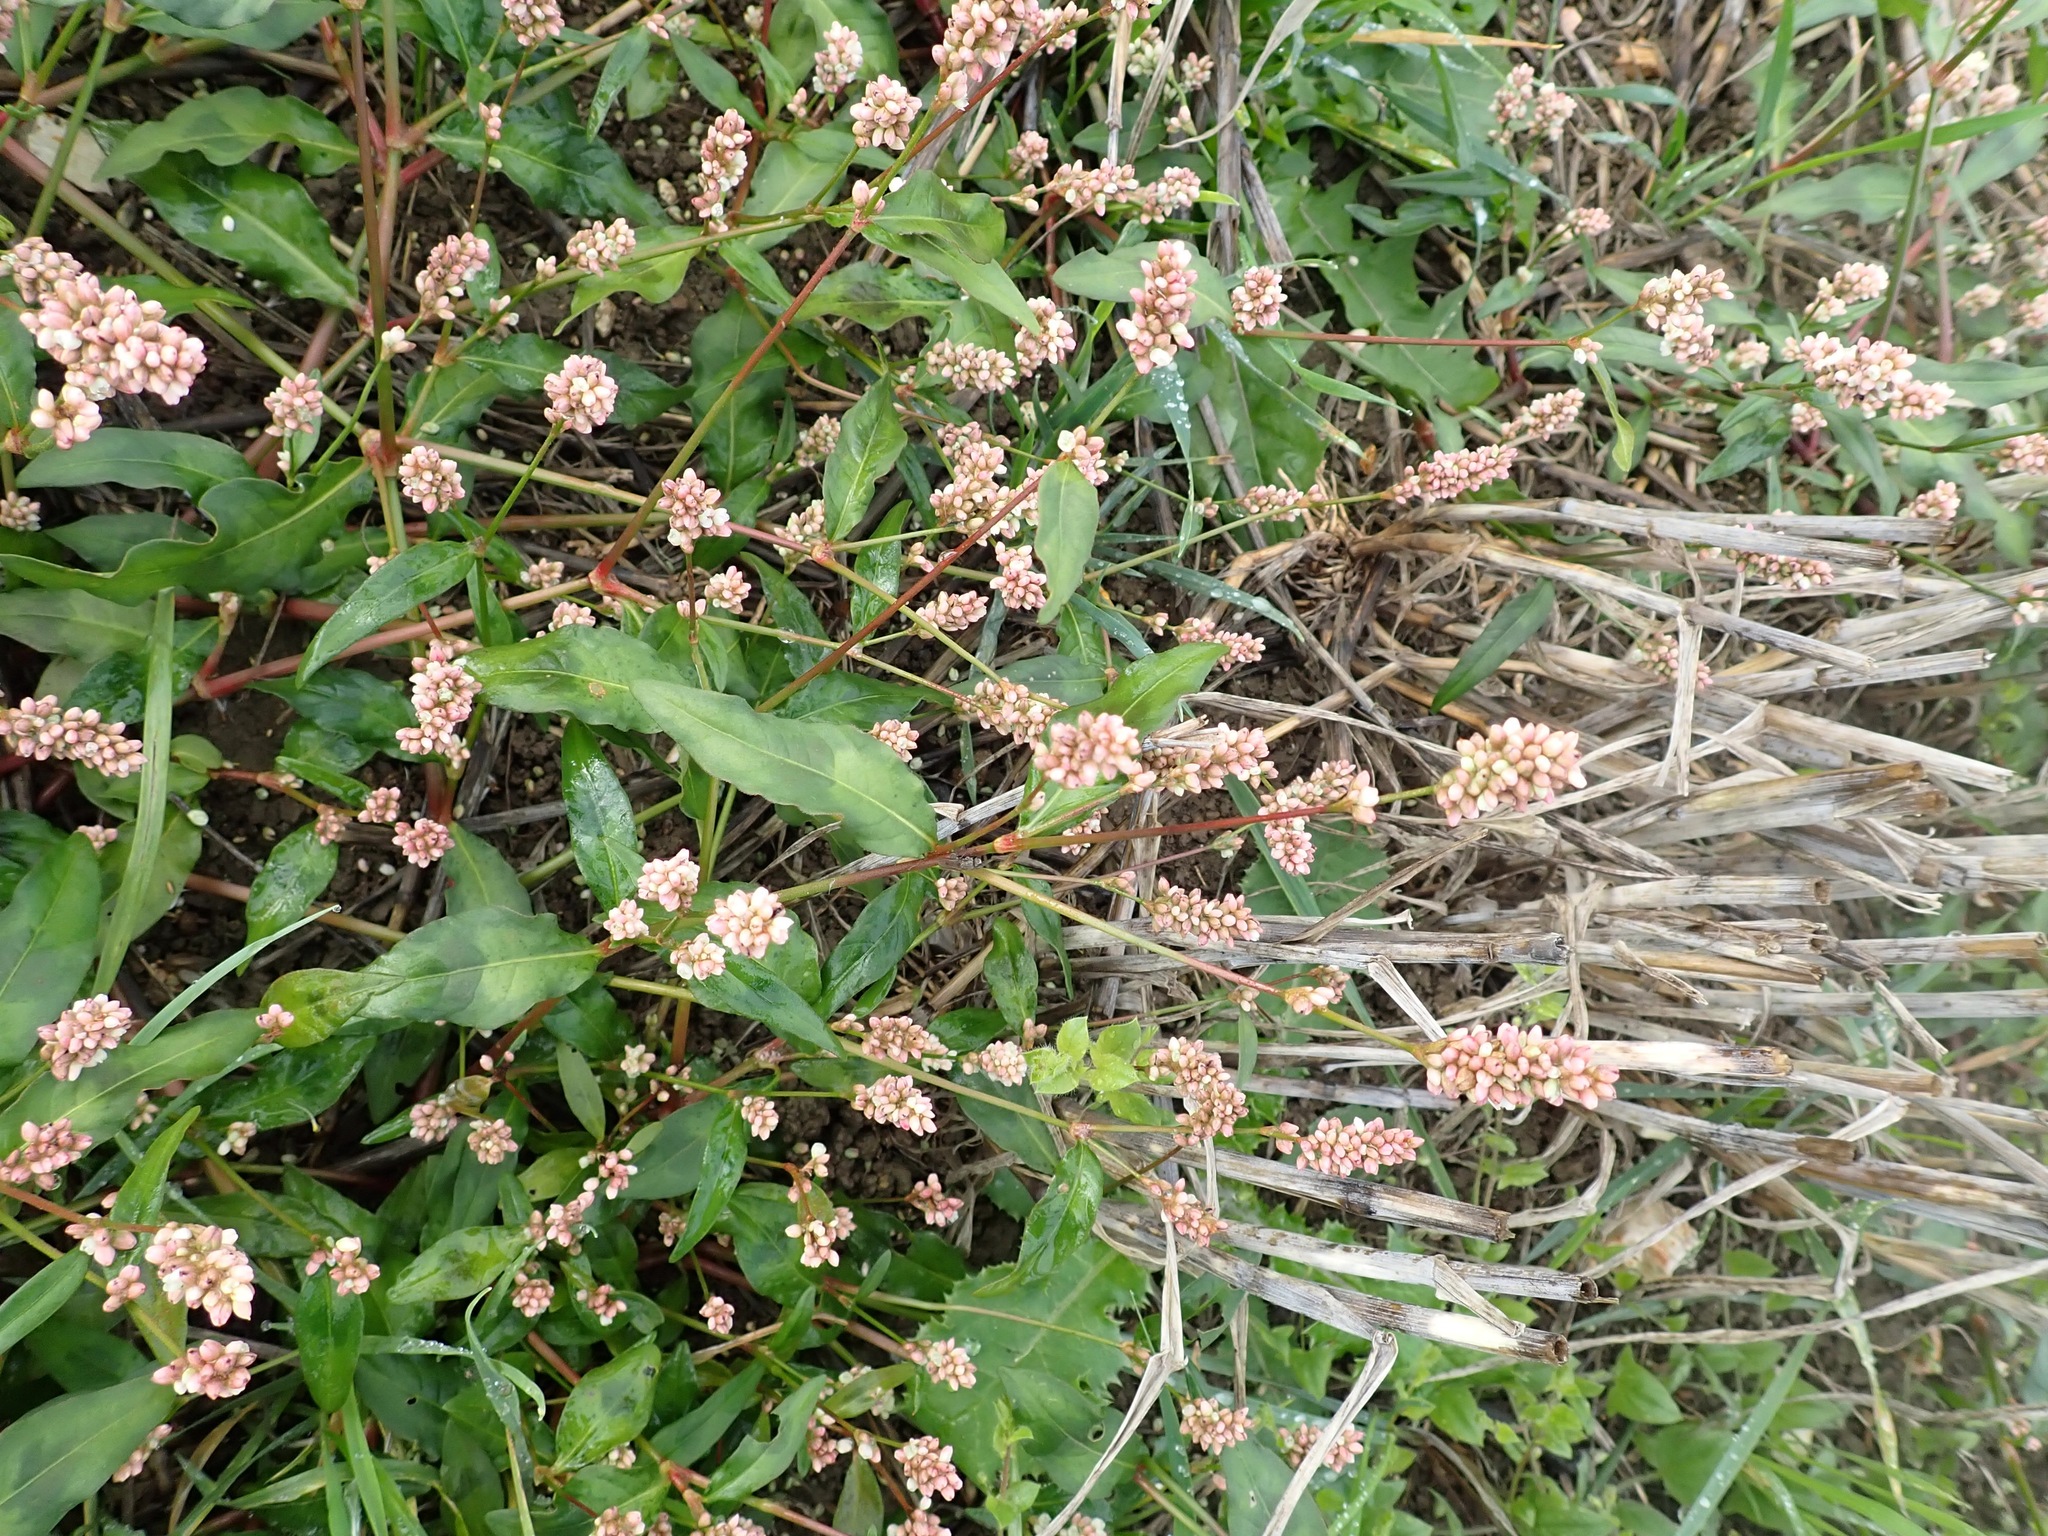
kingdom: Plantae
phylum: Tracheophyta
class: Magnoliopsida
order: Caryophyllales
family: Polygonaceae
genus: Persicaria
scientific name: Persicaria maculosa
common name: Redshank
